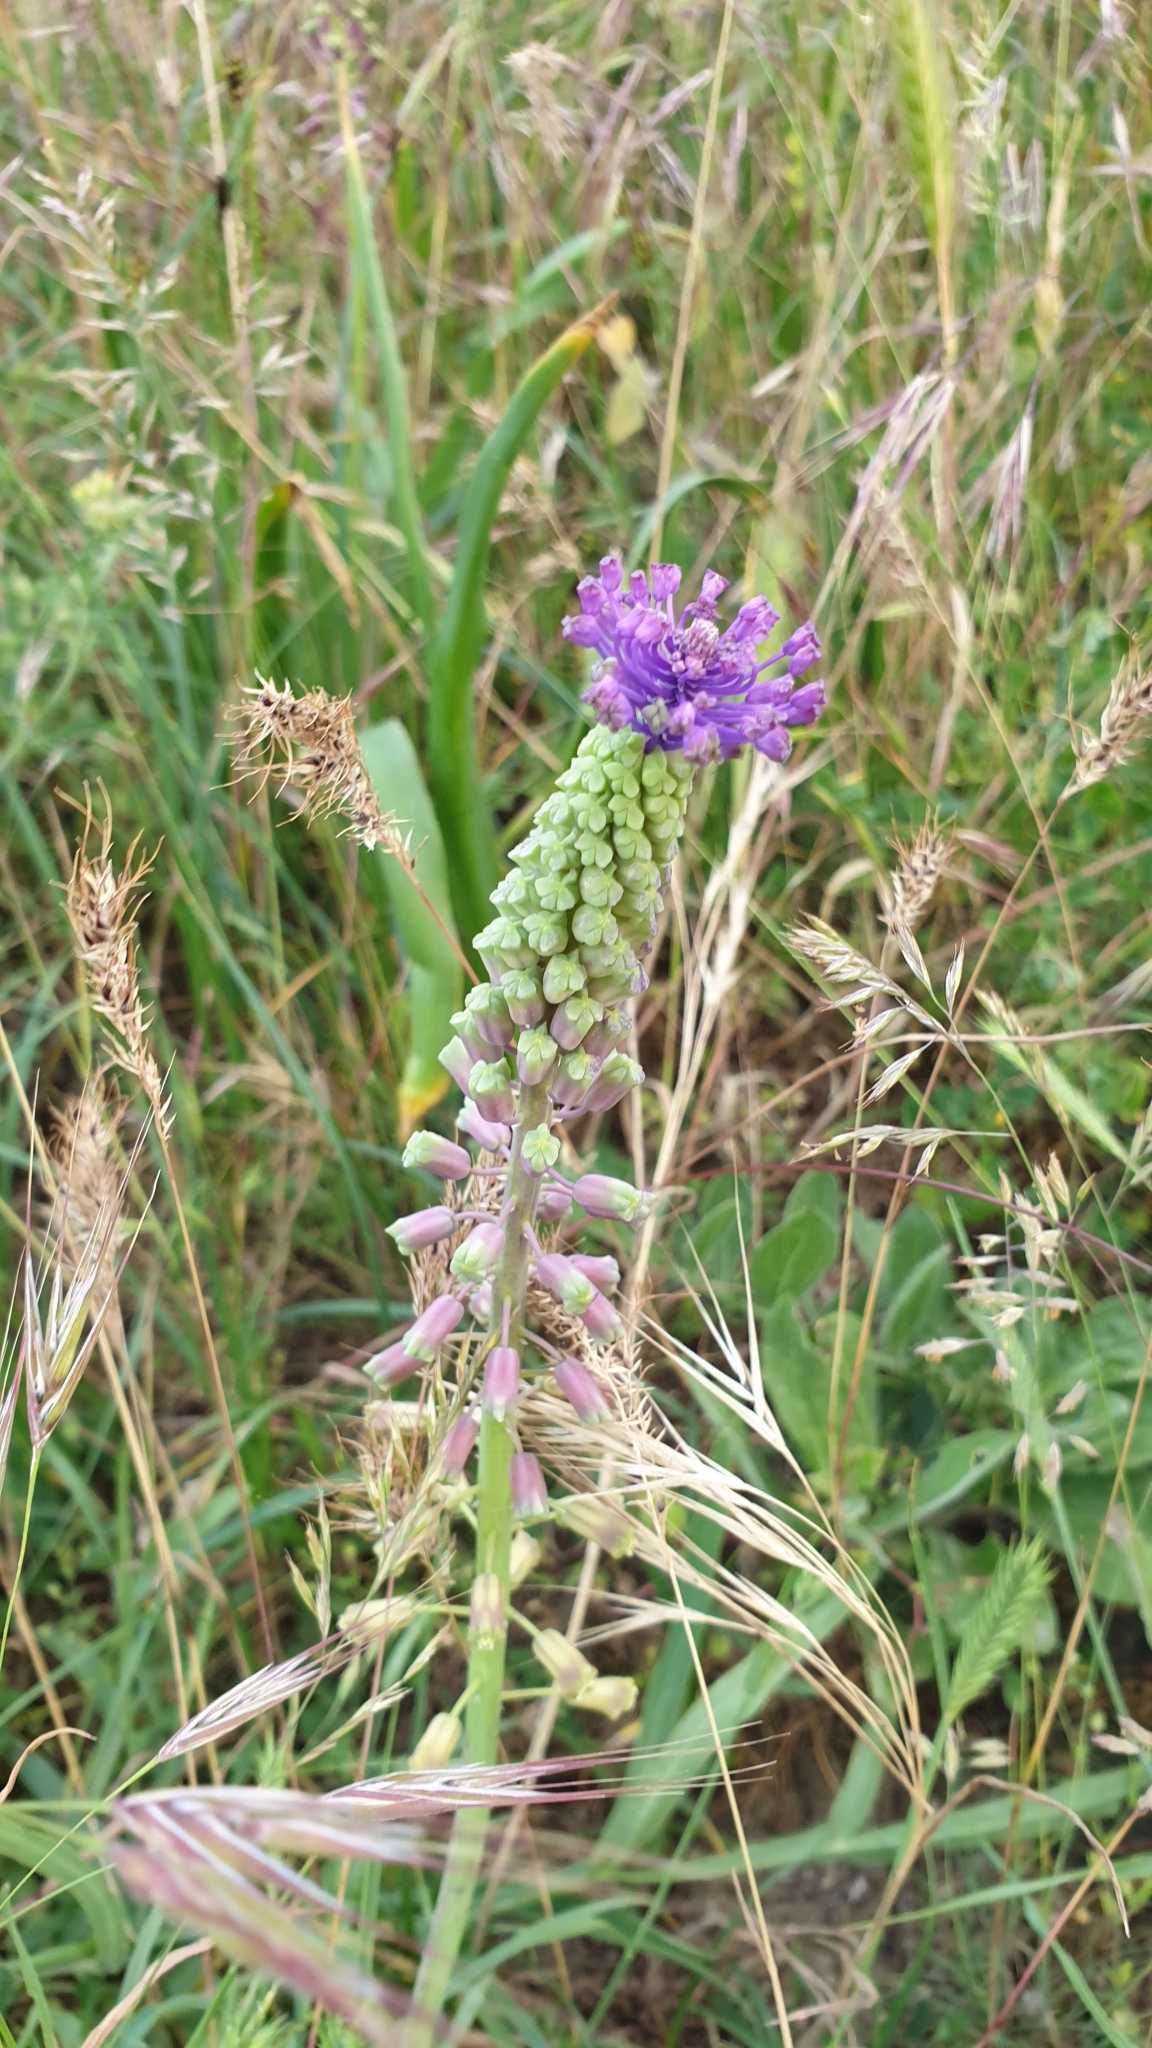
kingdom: Plantae
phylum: Tracheophyta
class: Liliopsida
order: Asparagales
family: Asparagaceae
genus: Muscari
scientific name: Muscari comosum
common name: Tassel hyacinth
